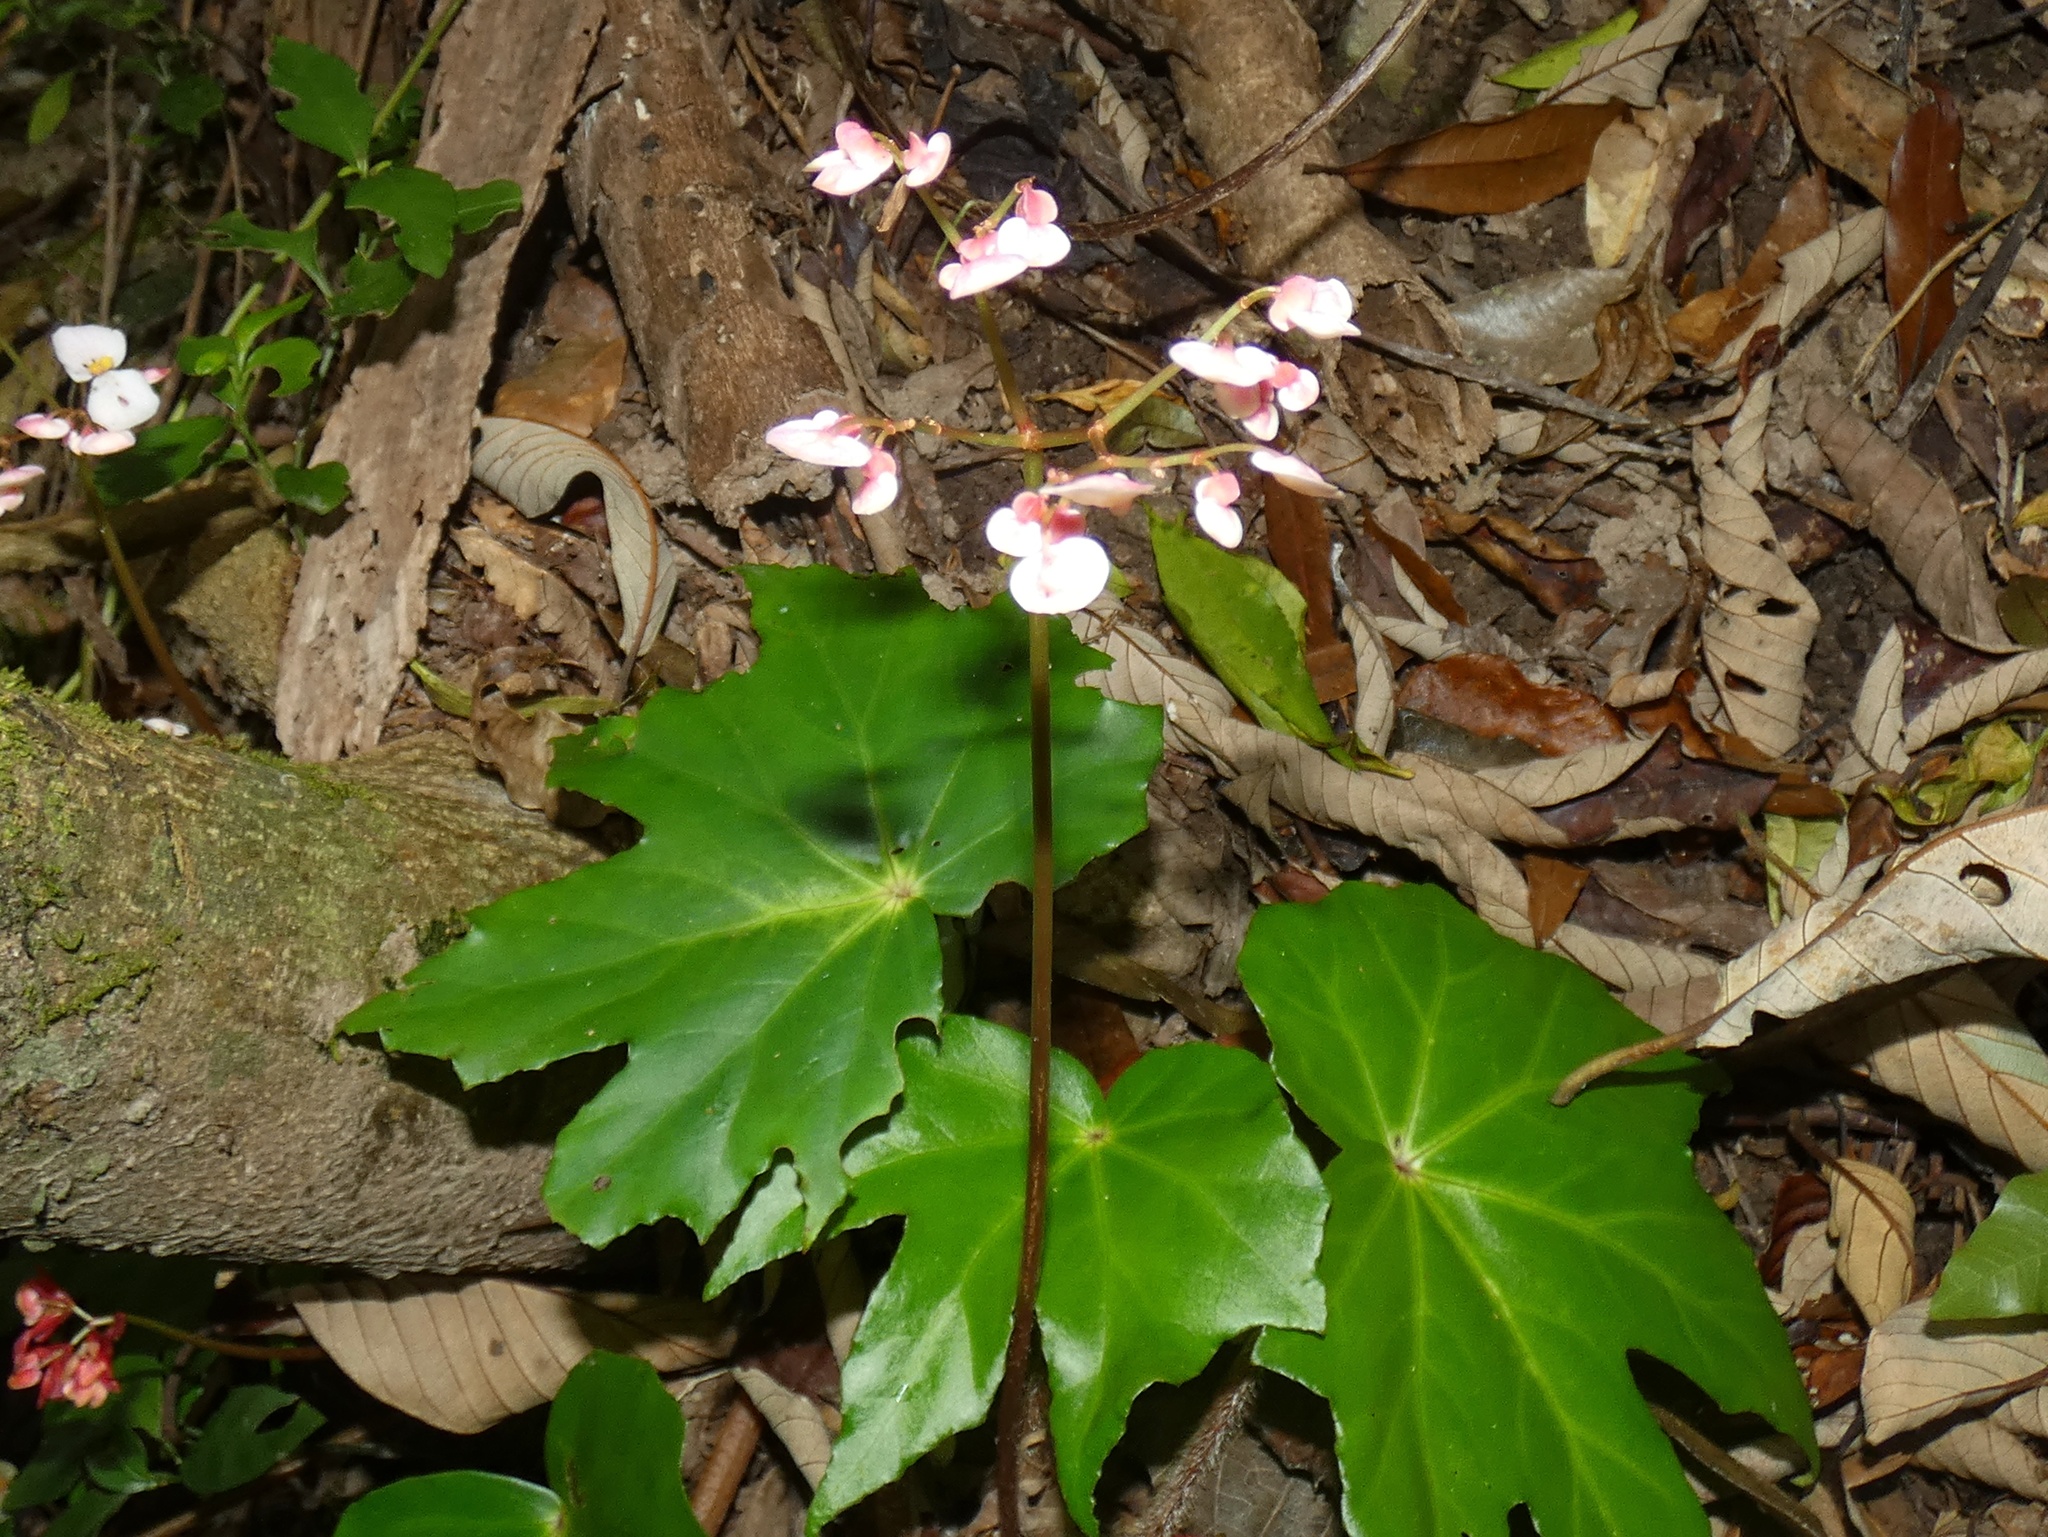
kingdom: Plantae
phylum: Tracheophyta
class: Magnoliopsida
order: Cucurbitales
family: Begoniaceae
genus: Begonia
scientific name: Begonia fortunensis
